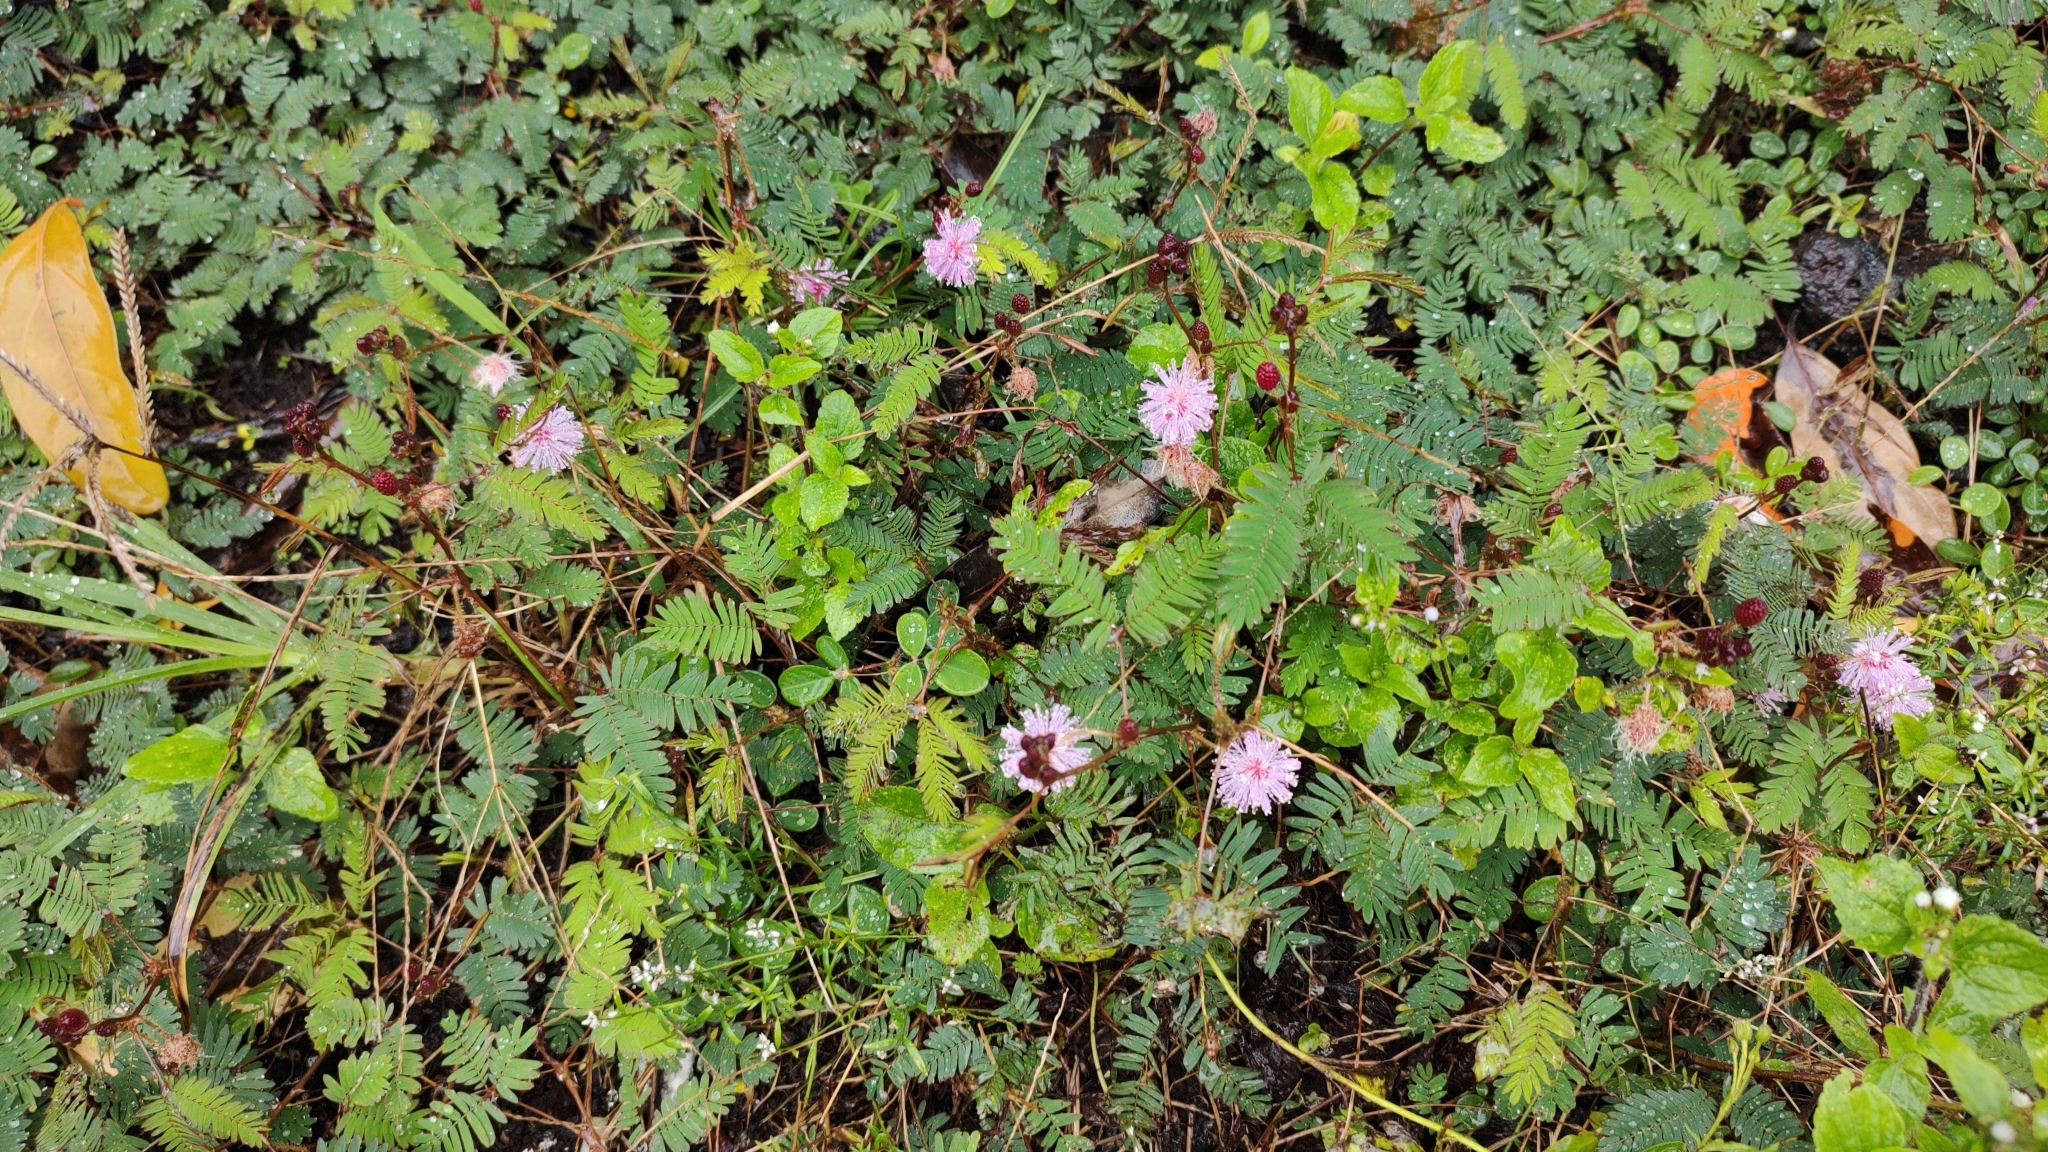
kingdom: Plantae
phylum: Tracheophyta
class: Magnoliopsida
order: Fabales
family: Fabaceae
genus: Mimosa
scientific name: Mimosa pudica
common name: Sensitive plant
